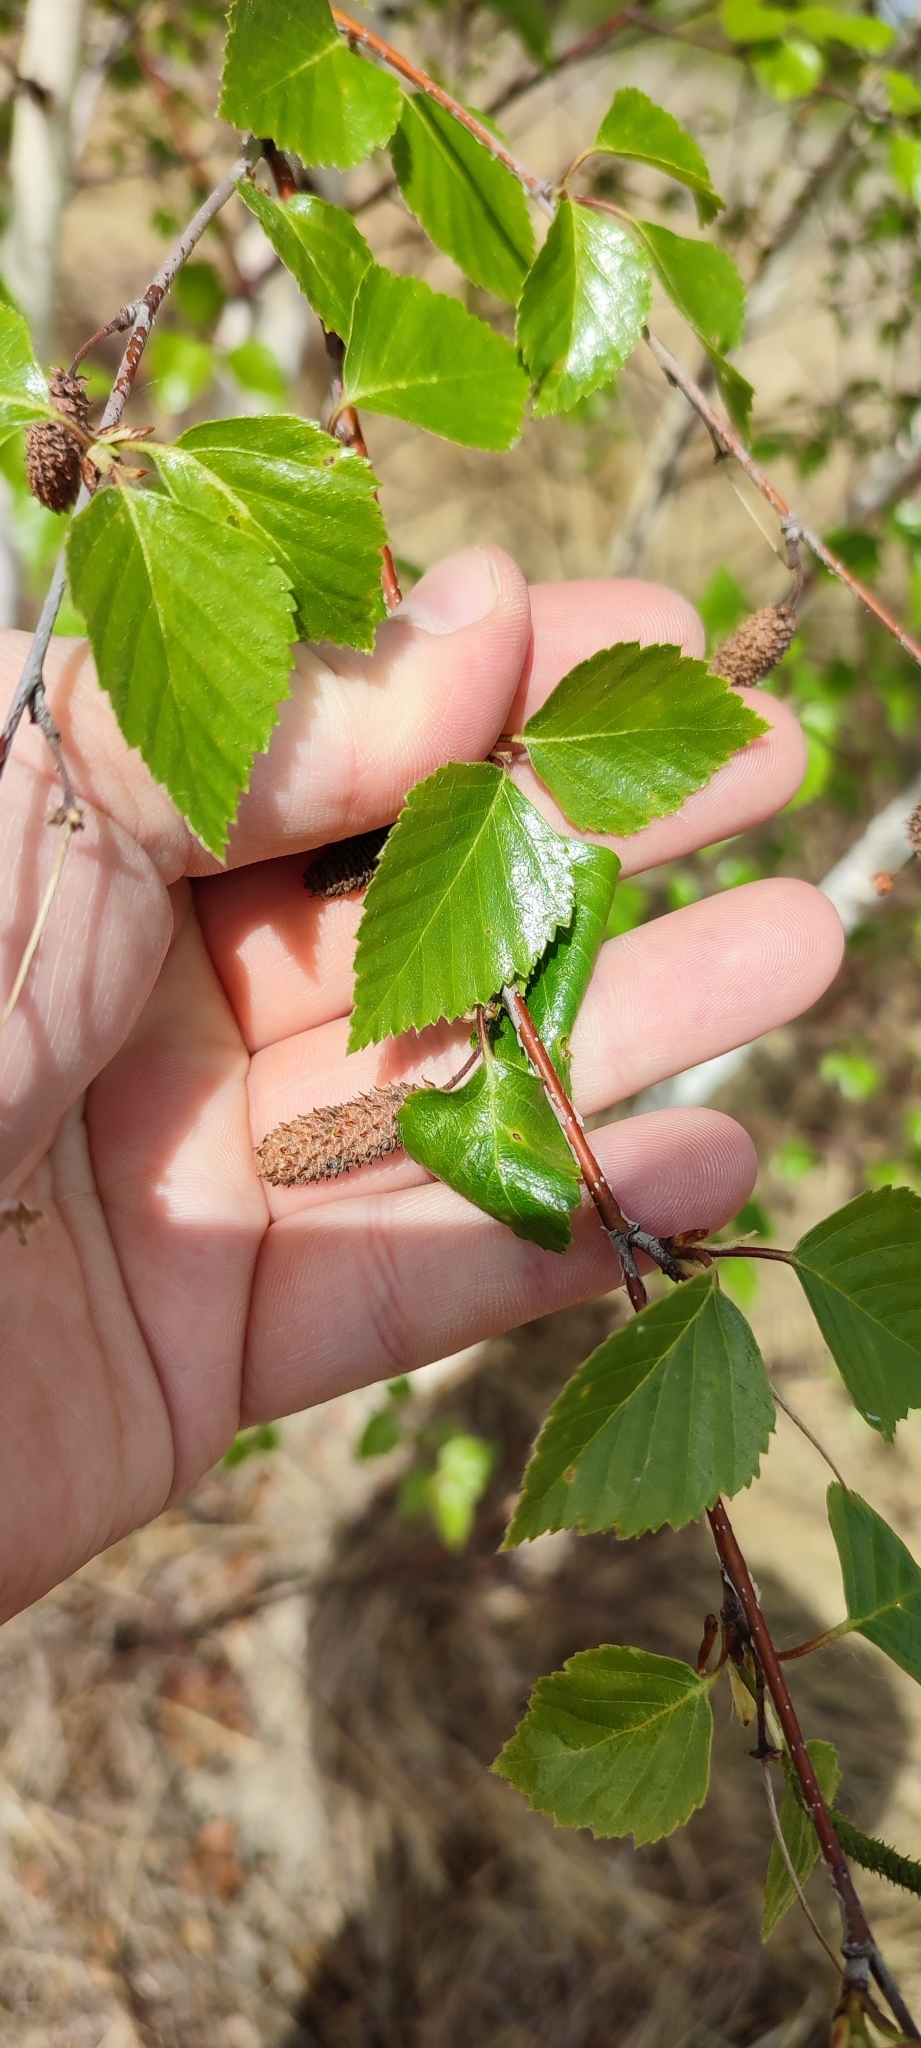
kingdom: Plantae
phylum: Tracheophyta
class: Magnoliopsida
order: Fagales
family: Betulaceae
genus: Betula
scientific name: Betula pendula
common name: Silver birch
